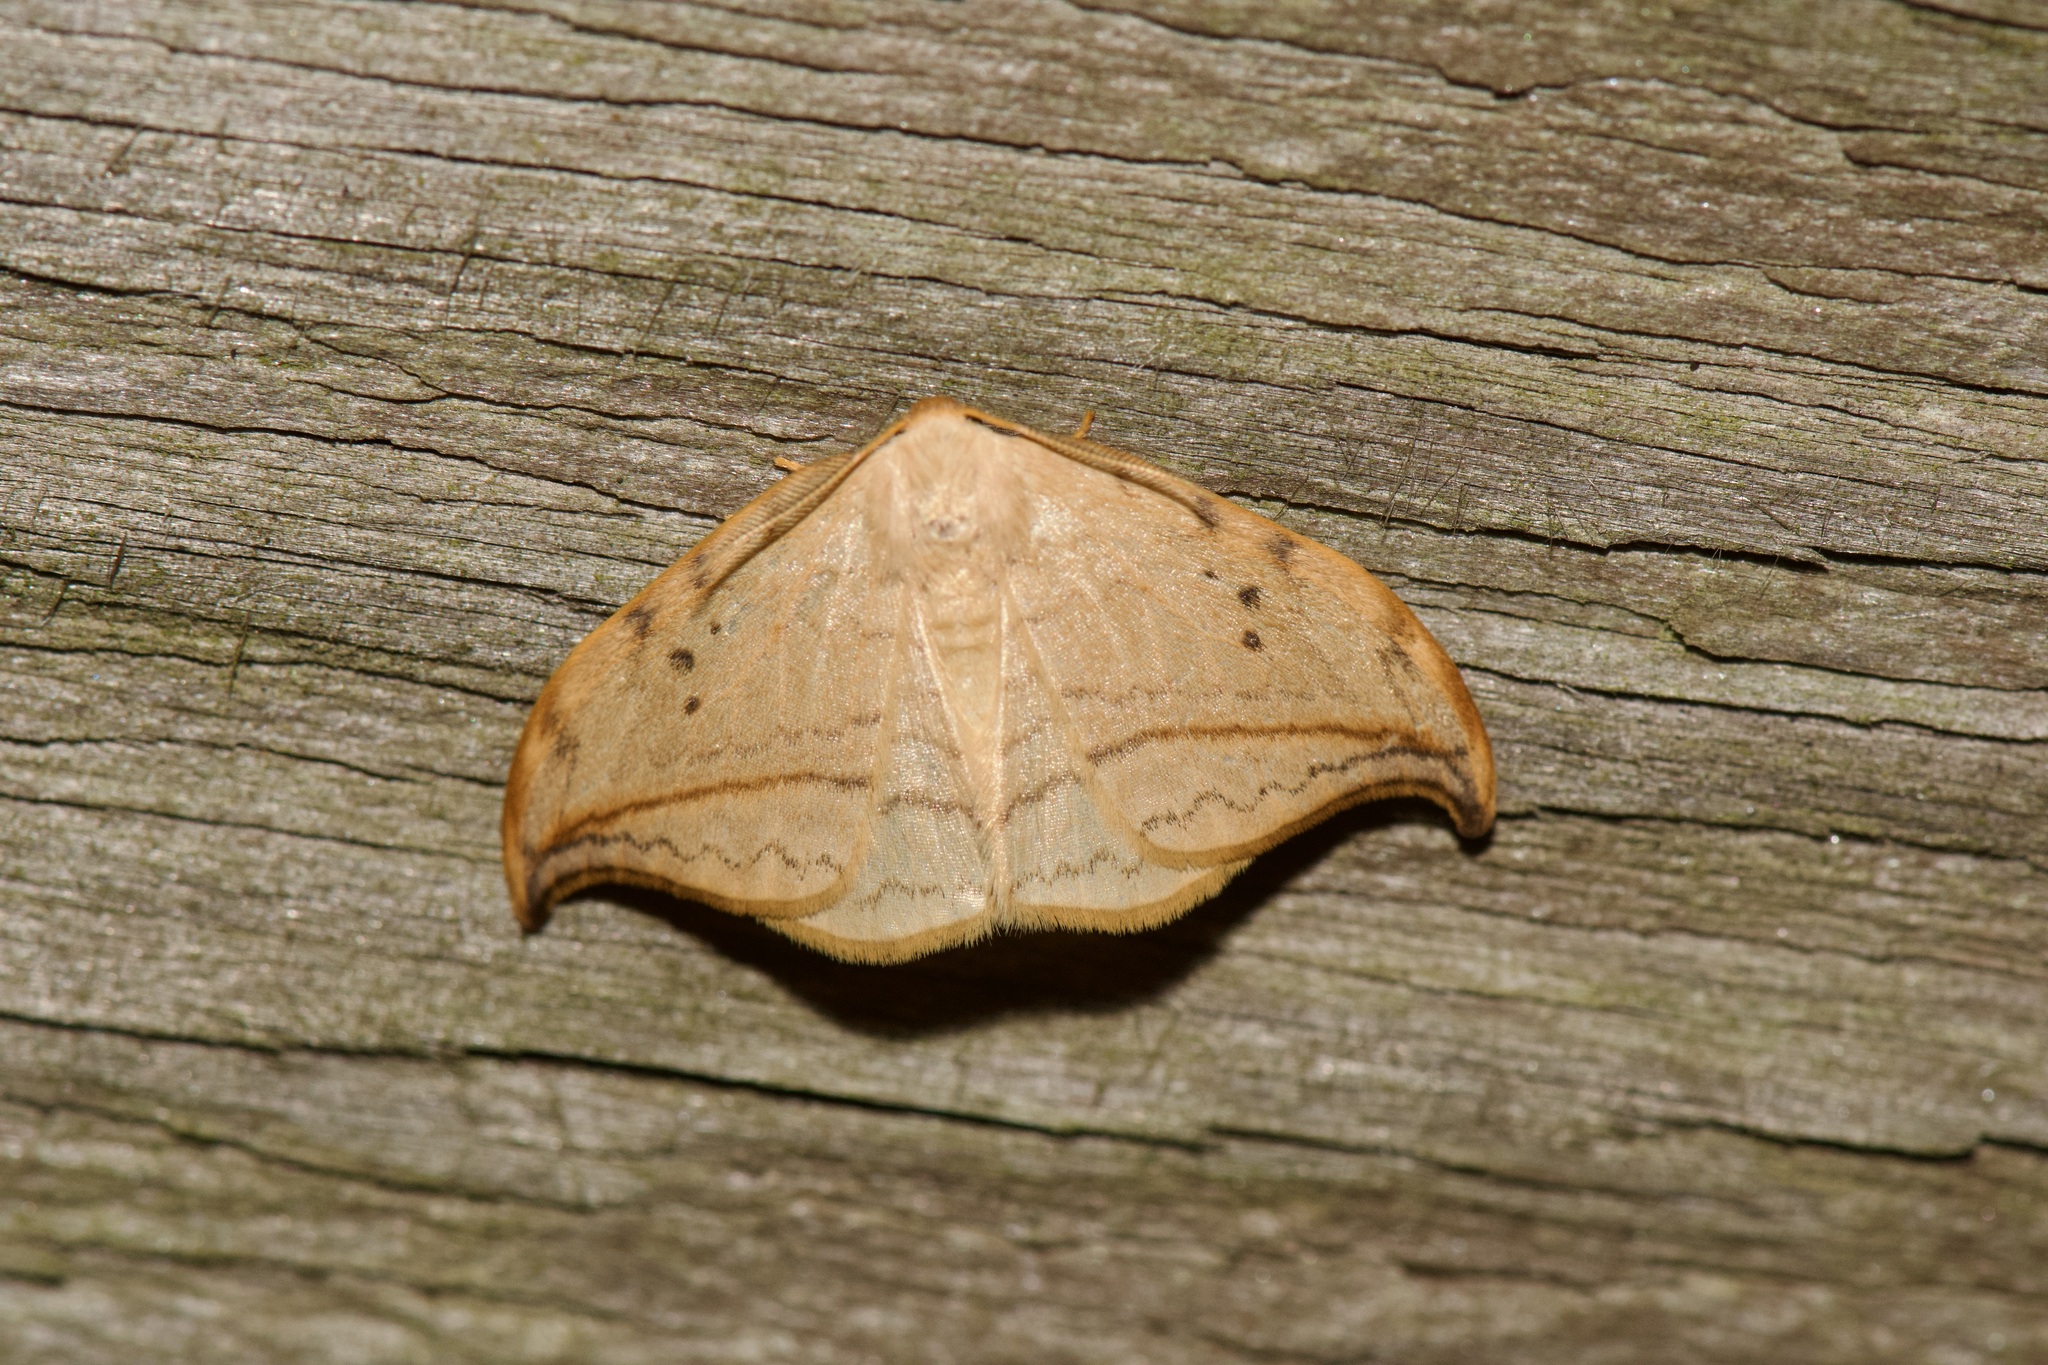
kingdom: Animalia
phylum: Arthropoda
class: Insecta
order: Lepidoptera
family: Drepanidae
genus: Drepana
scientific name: Drepana arcuata
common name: Arched hooktip moth
